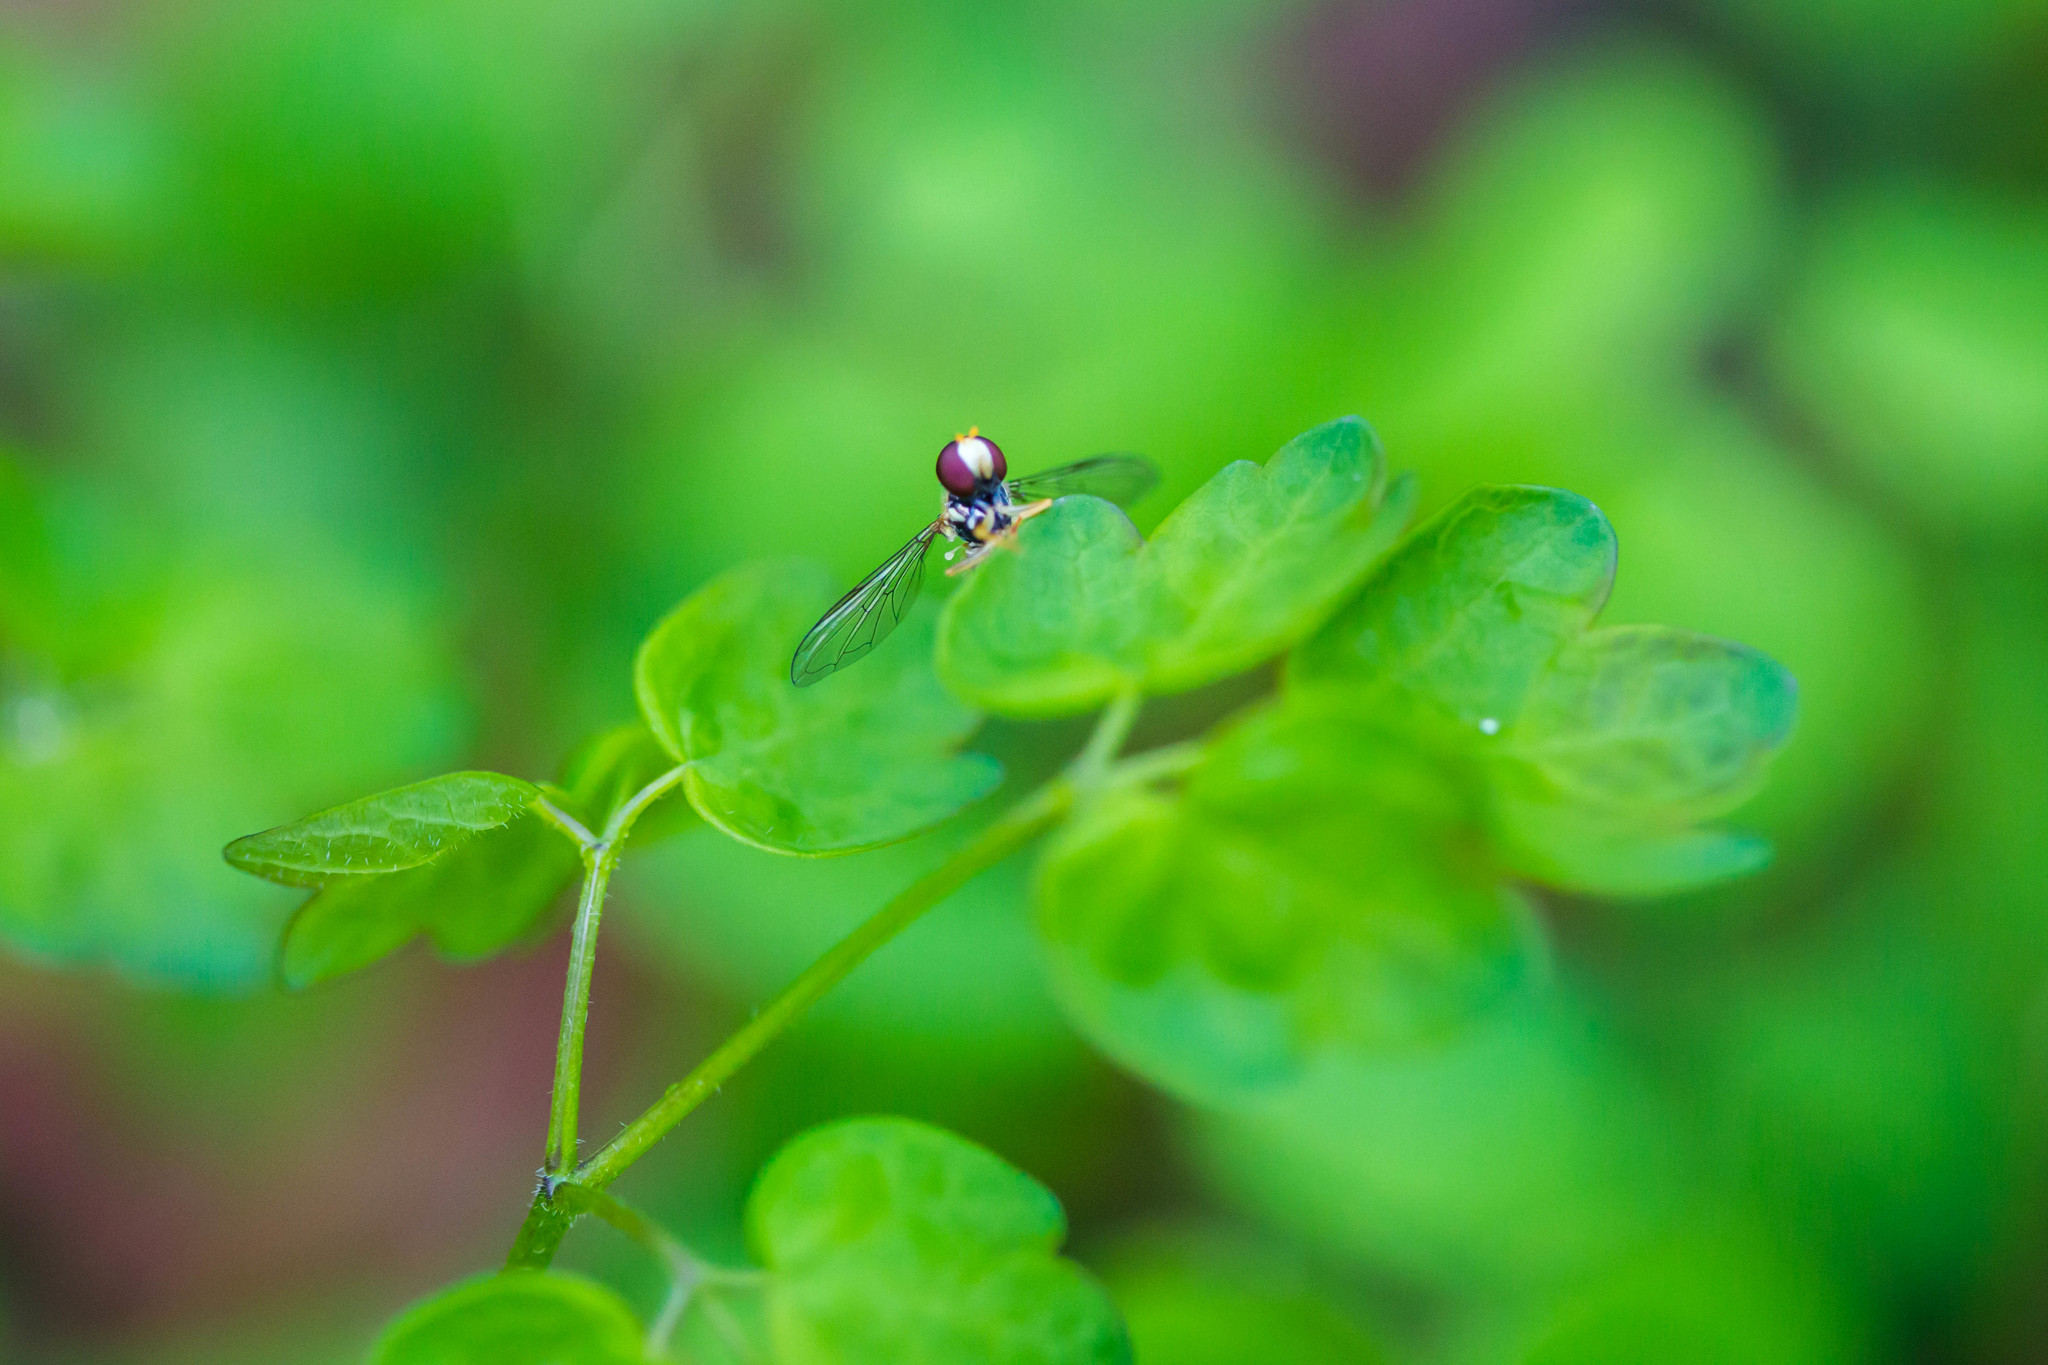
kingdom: Animalia
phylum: Arthropoda
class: Insecta
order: Diptera
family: Syrphidae
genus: Toxomerus
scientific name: Toxomerus geminatus
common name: Eastern calligrapher
